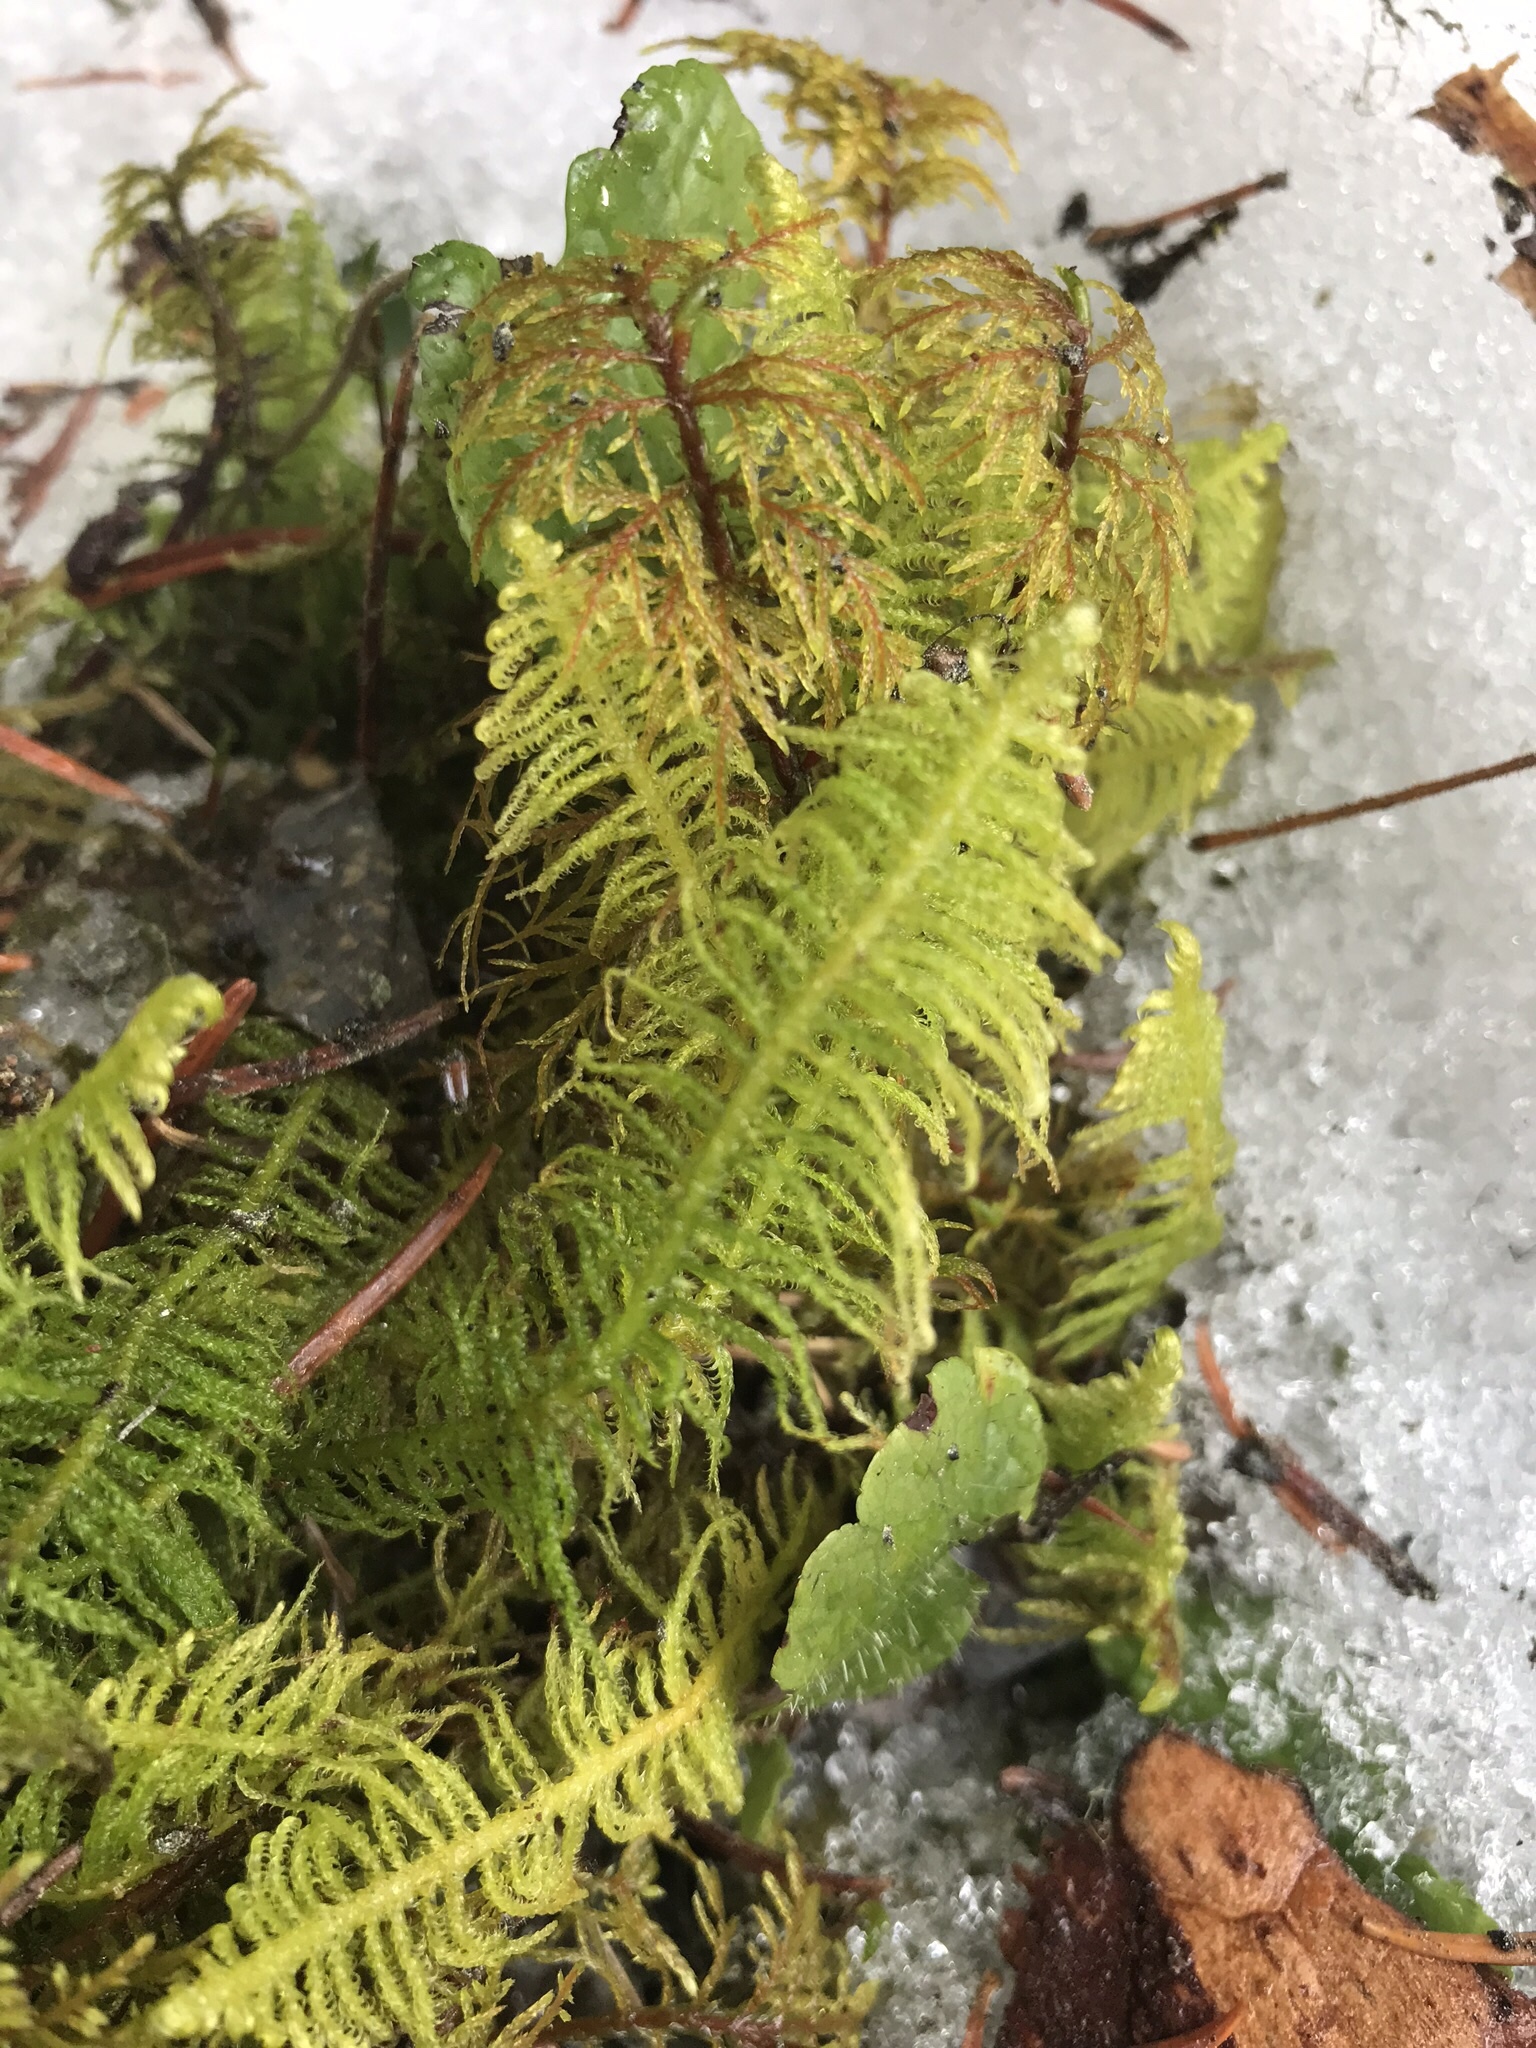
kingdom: Plantae
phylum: Bryophyta
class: Bryopsida
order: Hypnales
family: Pylaisiaceae
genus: Ptilium
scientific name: Ptilium crista-castrensis
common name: Knight's plume moss
